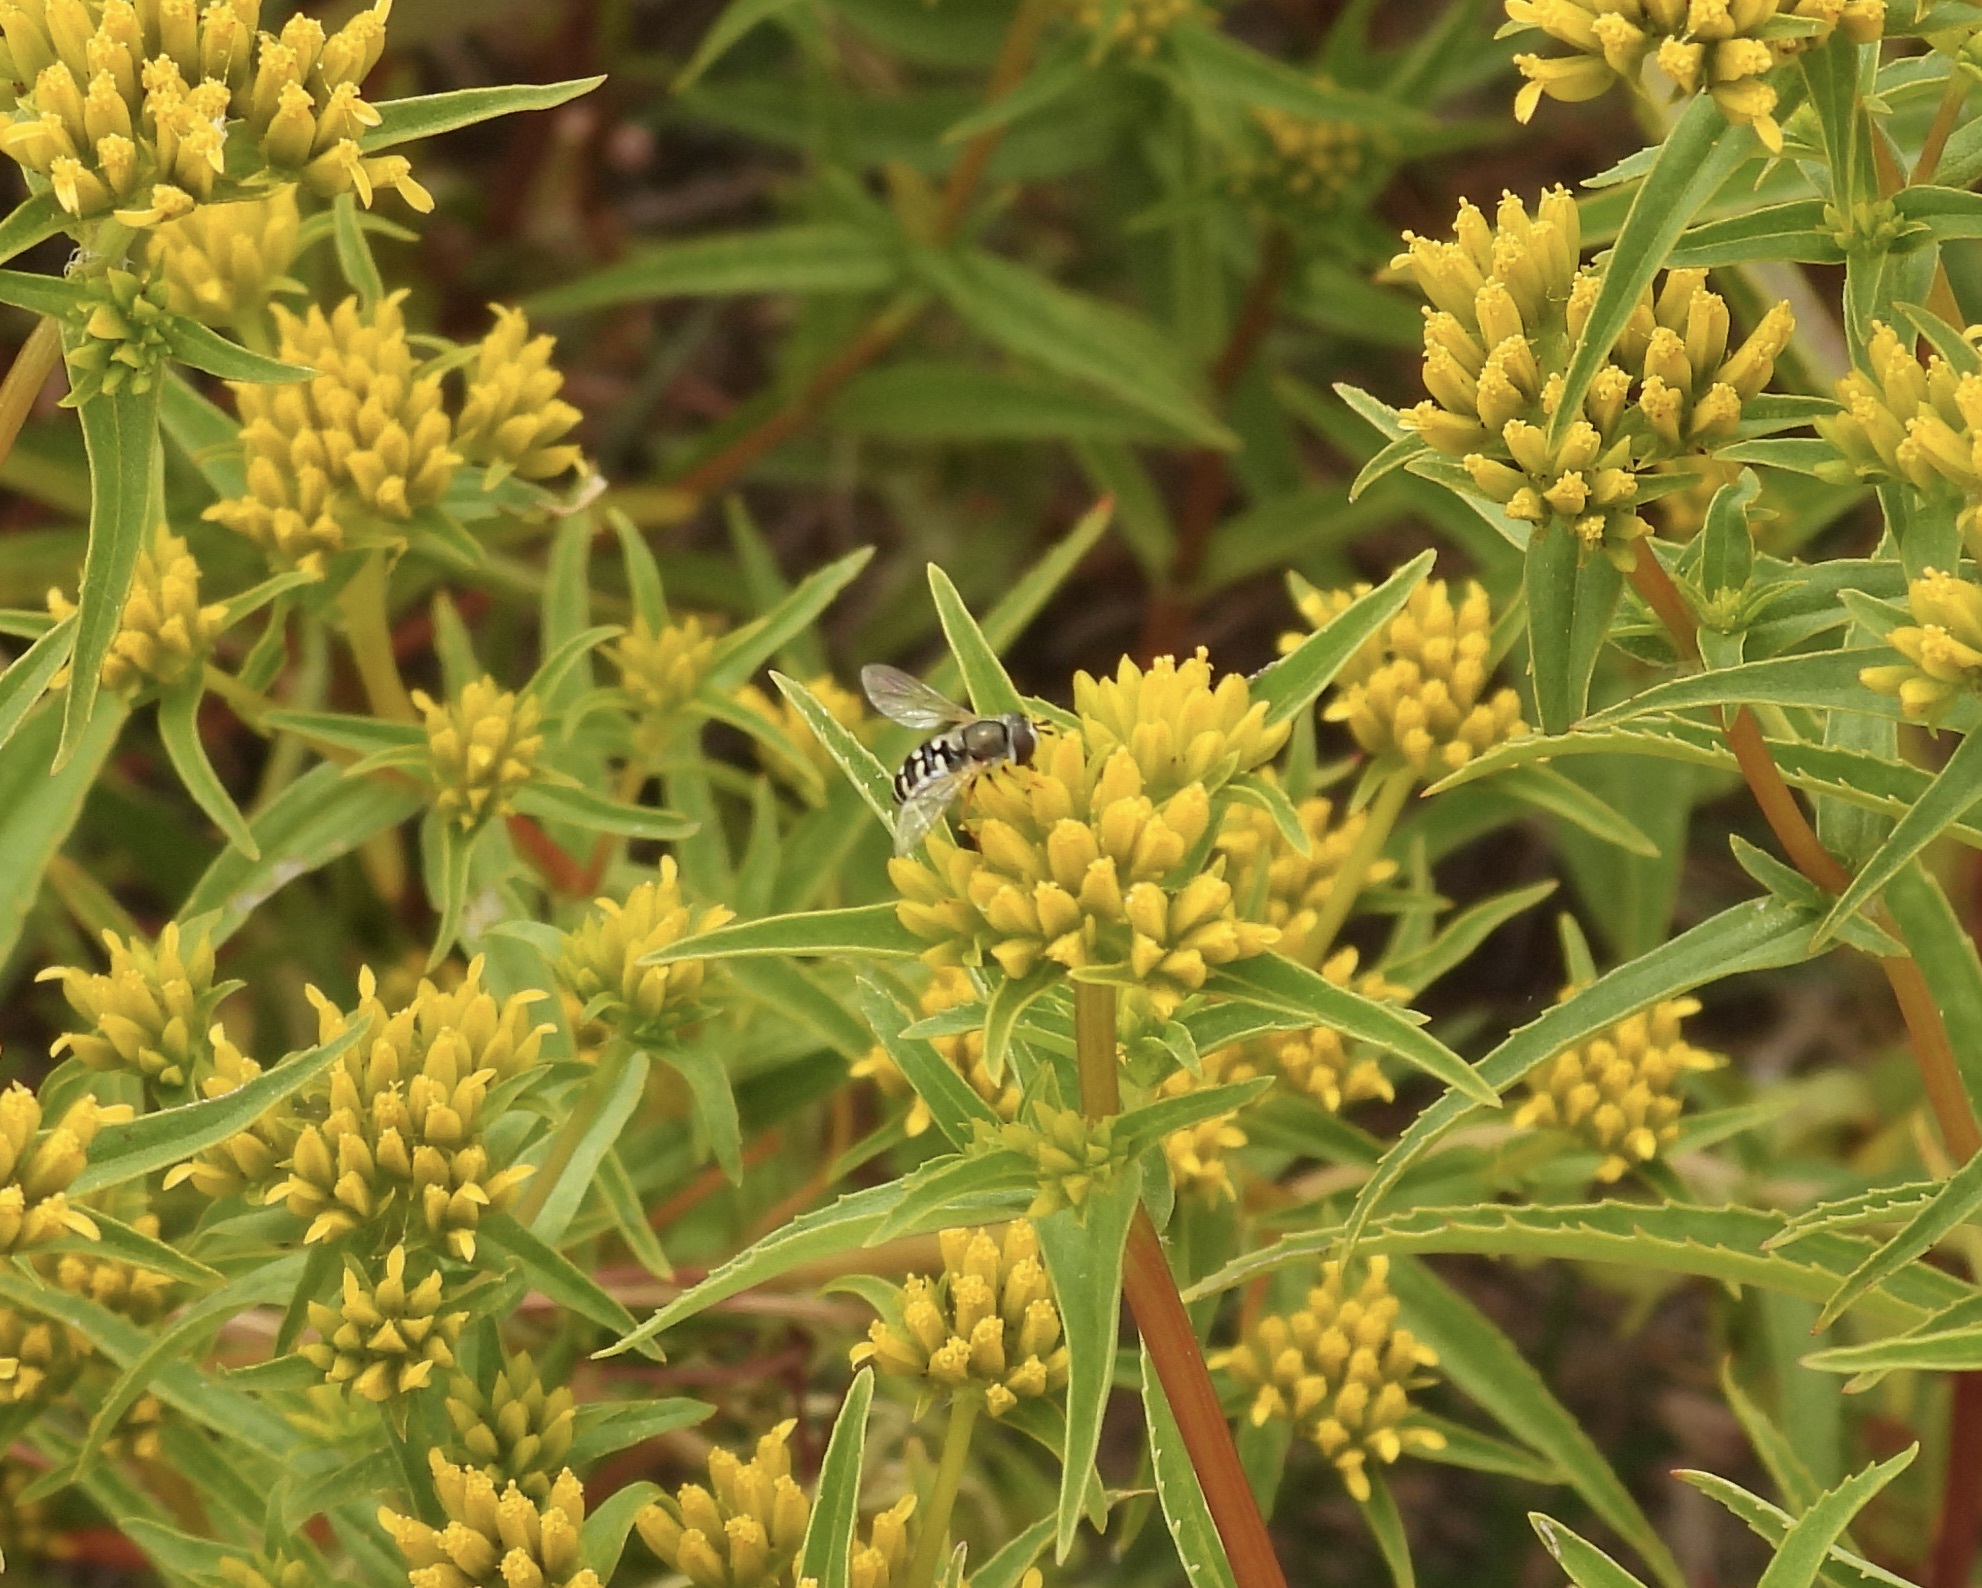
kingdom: Animalia
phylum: Arthropoda
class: Insecta
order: Diptera
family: Syrphidae
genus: Eupeodes
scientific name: Eupeodes volucris
